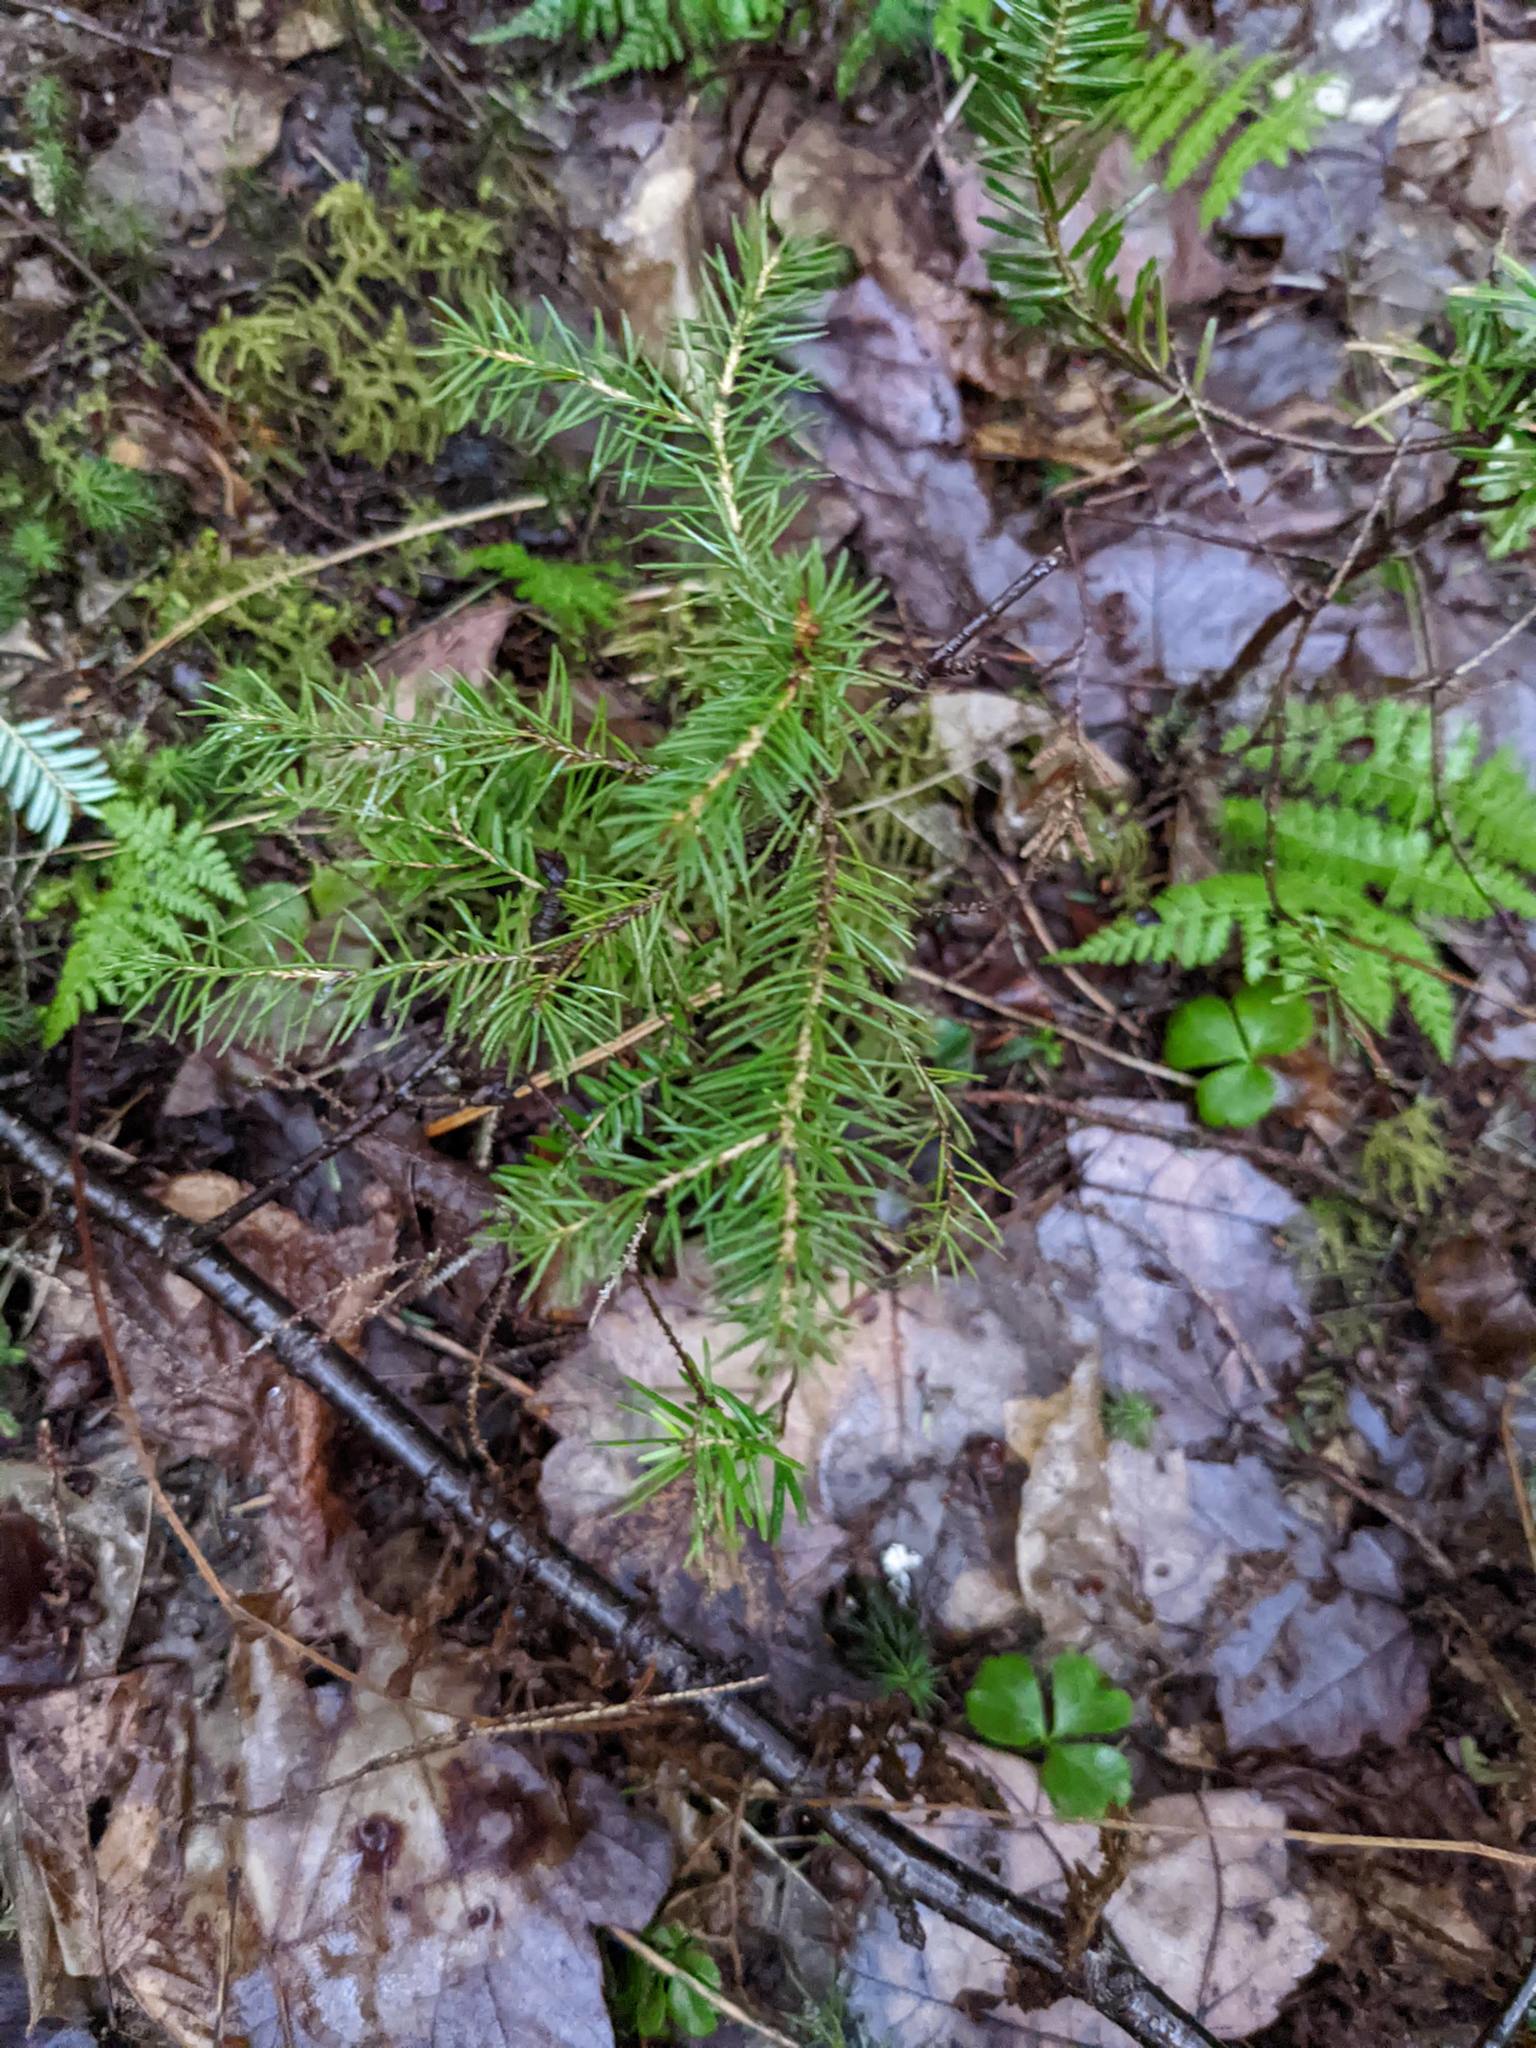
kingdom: Plantae
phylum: Tracheophyta
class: Pinopsida
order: Pinales
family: Pinaceae
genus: Picea
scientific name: Picea rubens
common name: Red spruce
